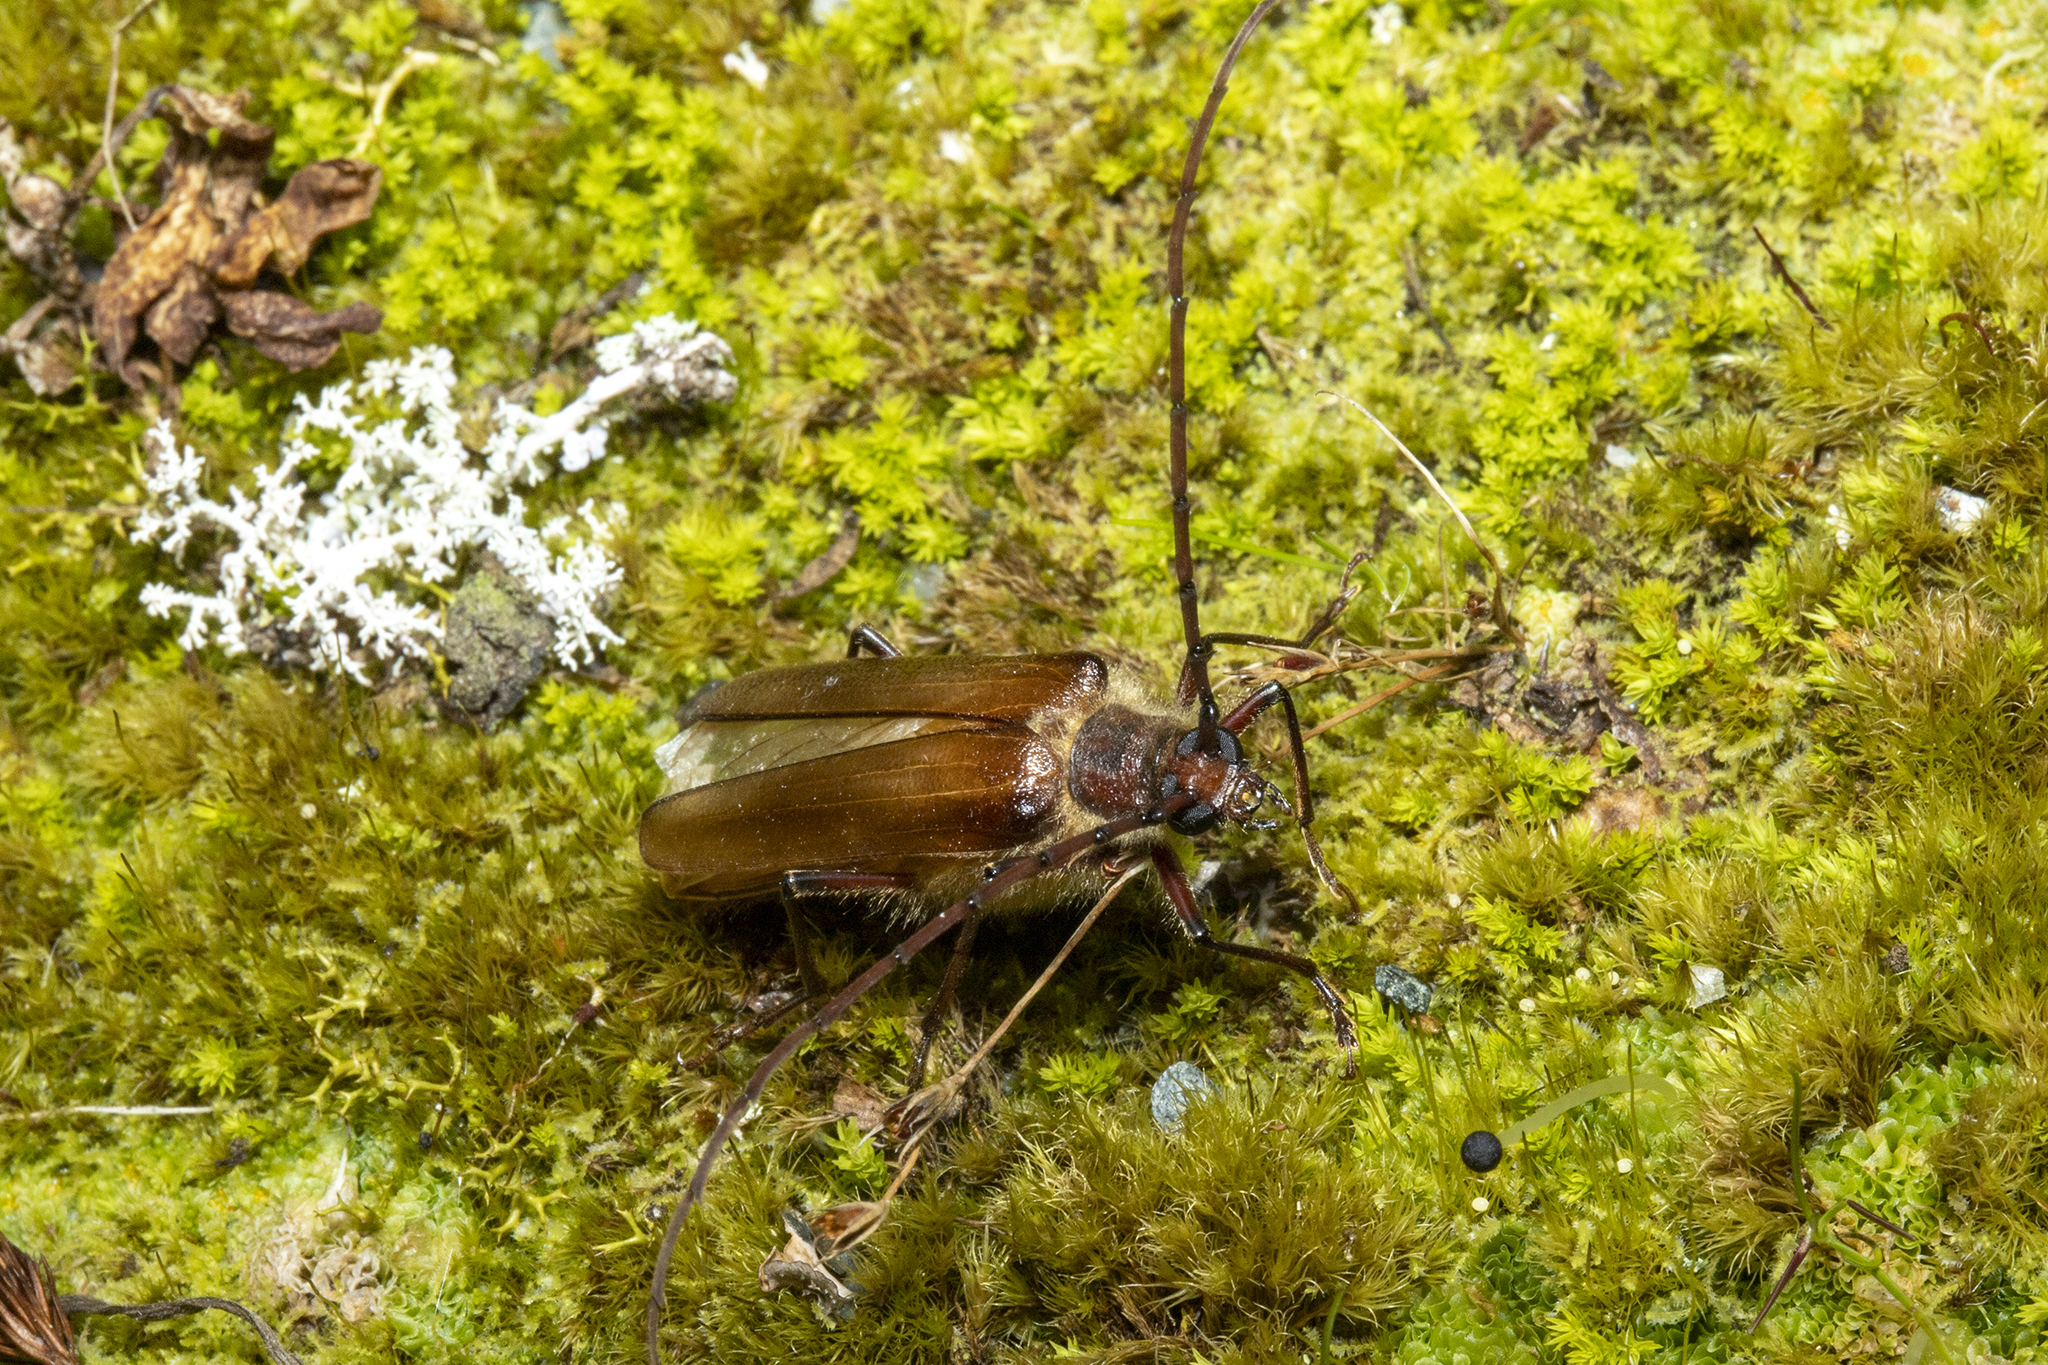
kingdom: Animalia
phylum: Arthropoda
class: Insecta
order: Coleoptera
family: Cerambycidae
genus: Ochrocydus
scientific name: Ochrocydus huttoni
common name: Kanuka longhorn
